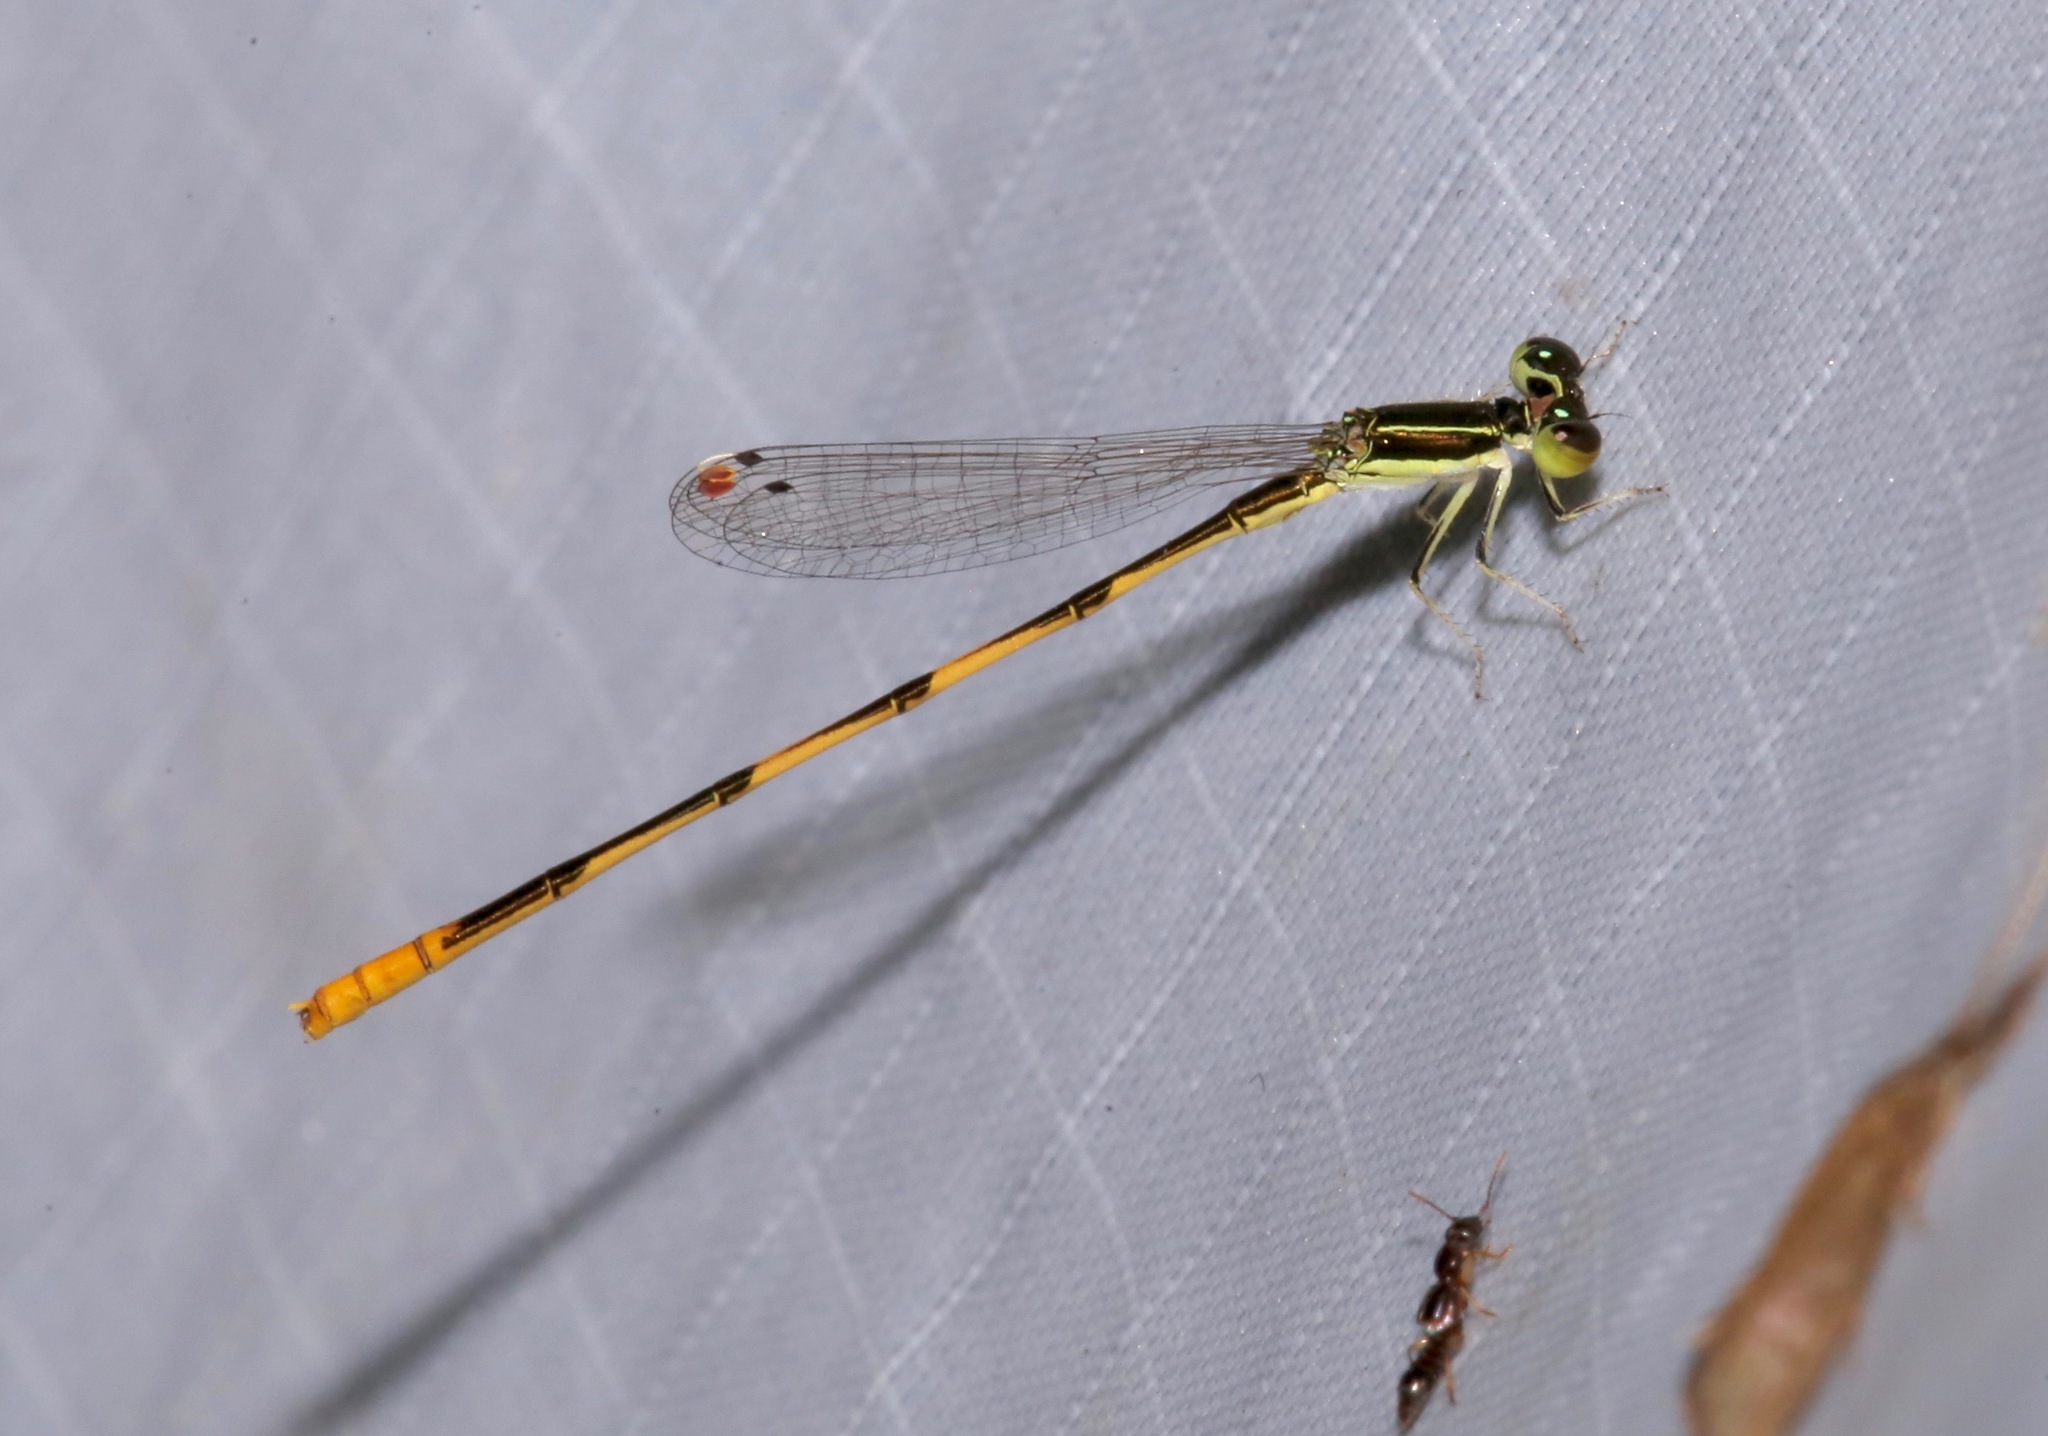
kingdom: Animalia
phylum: Arthropoda
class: Insecta
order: Odonata
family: Coenagrionidae
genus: Ischnura
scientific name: Ischnura hastata
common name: Citrine forktail
